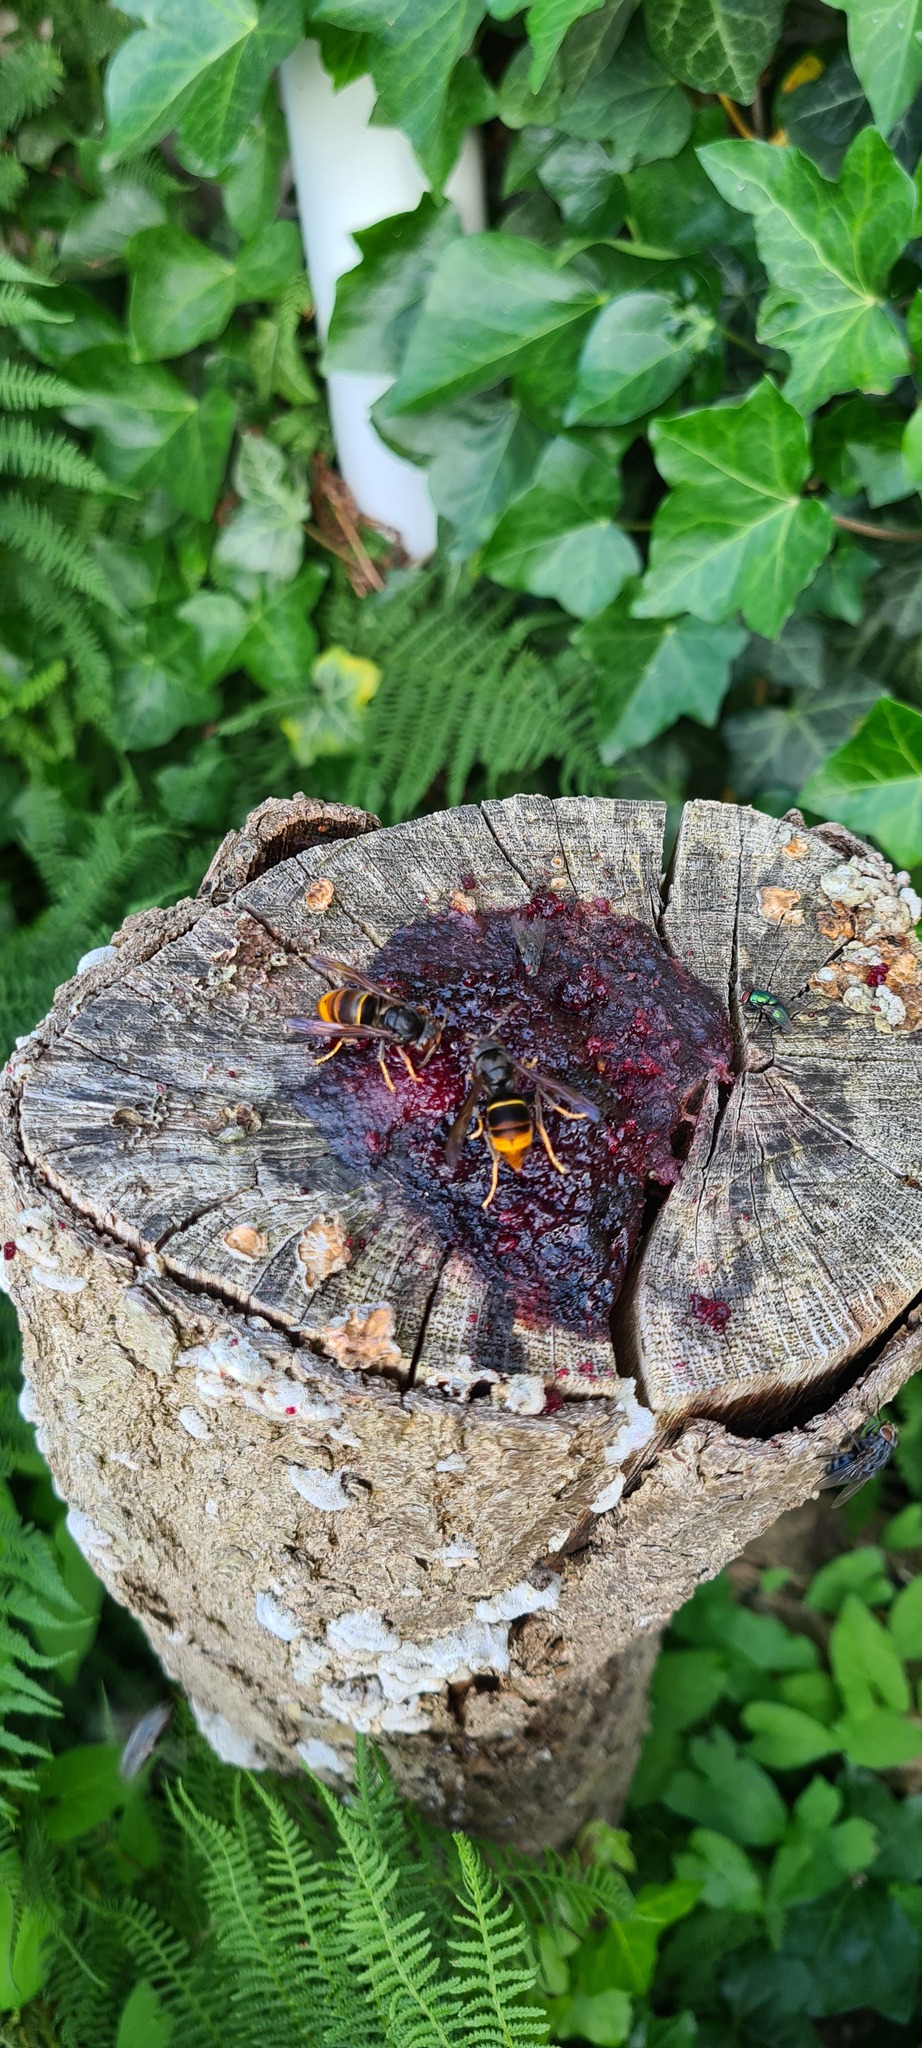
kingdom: Animalia
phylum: Arthropoda
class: Insecta
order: Hymenoptera
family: Vespidae
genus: Vespa
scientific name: Vespa velutina
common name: Asian hornet
